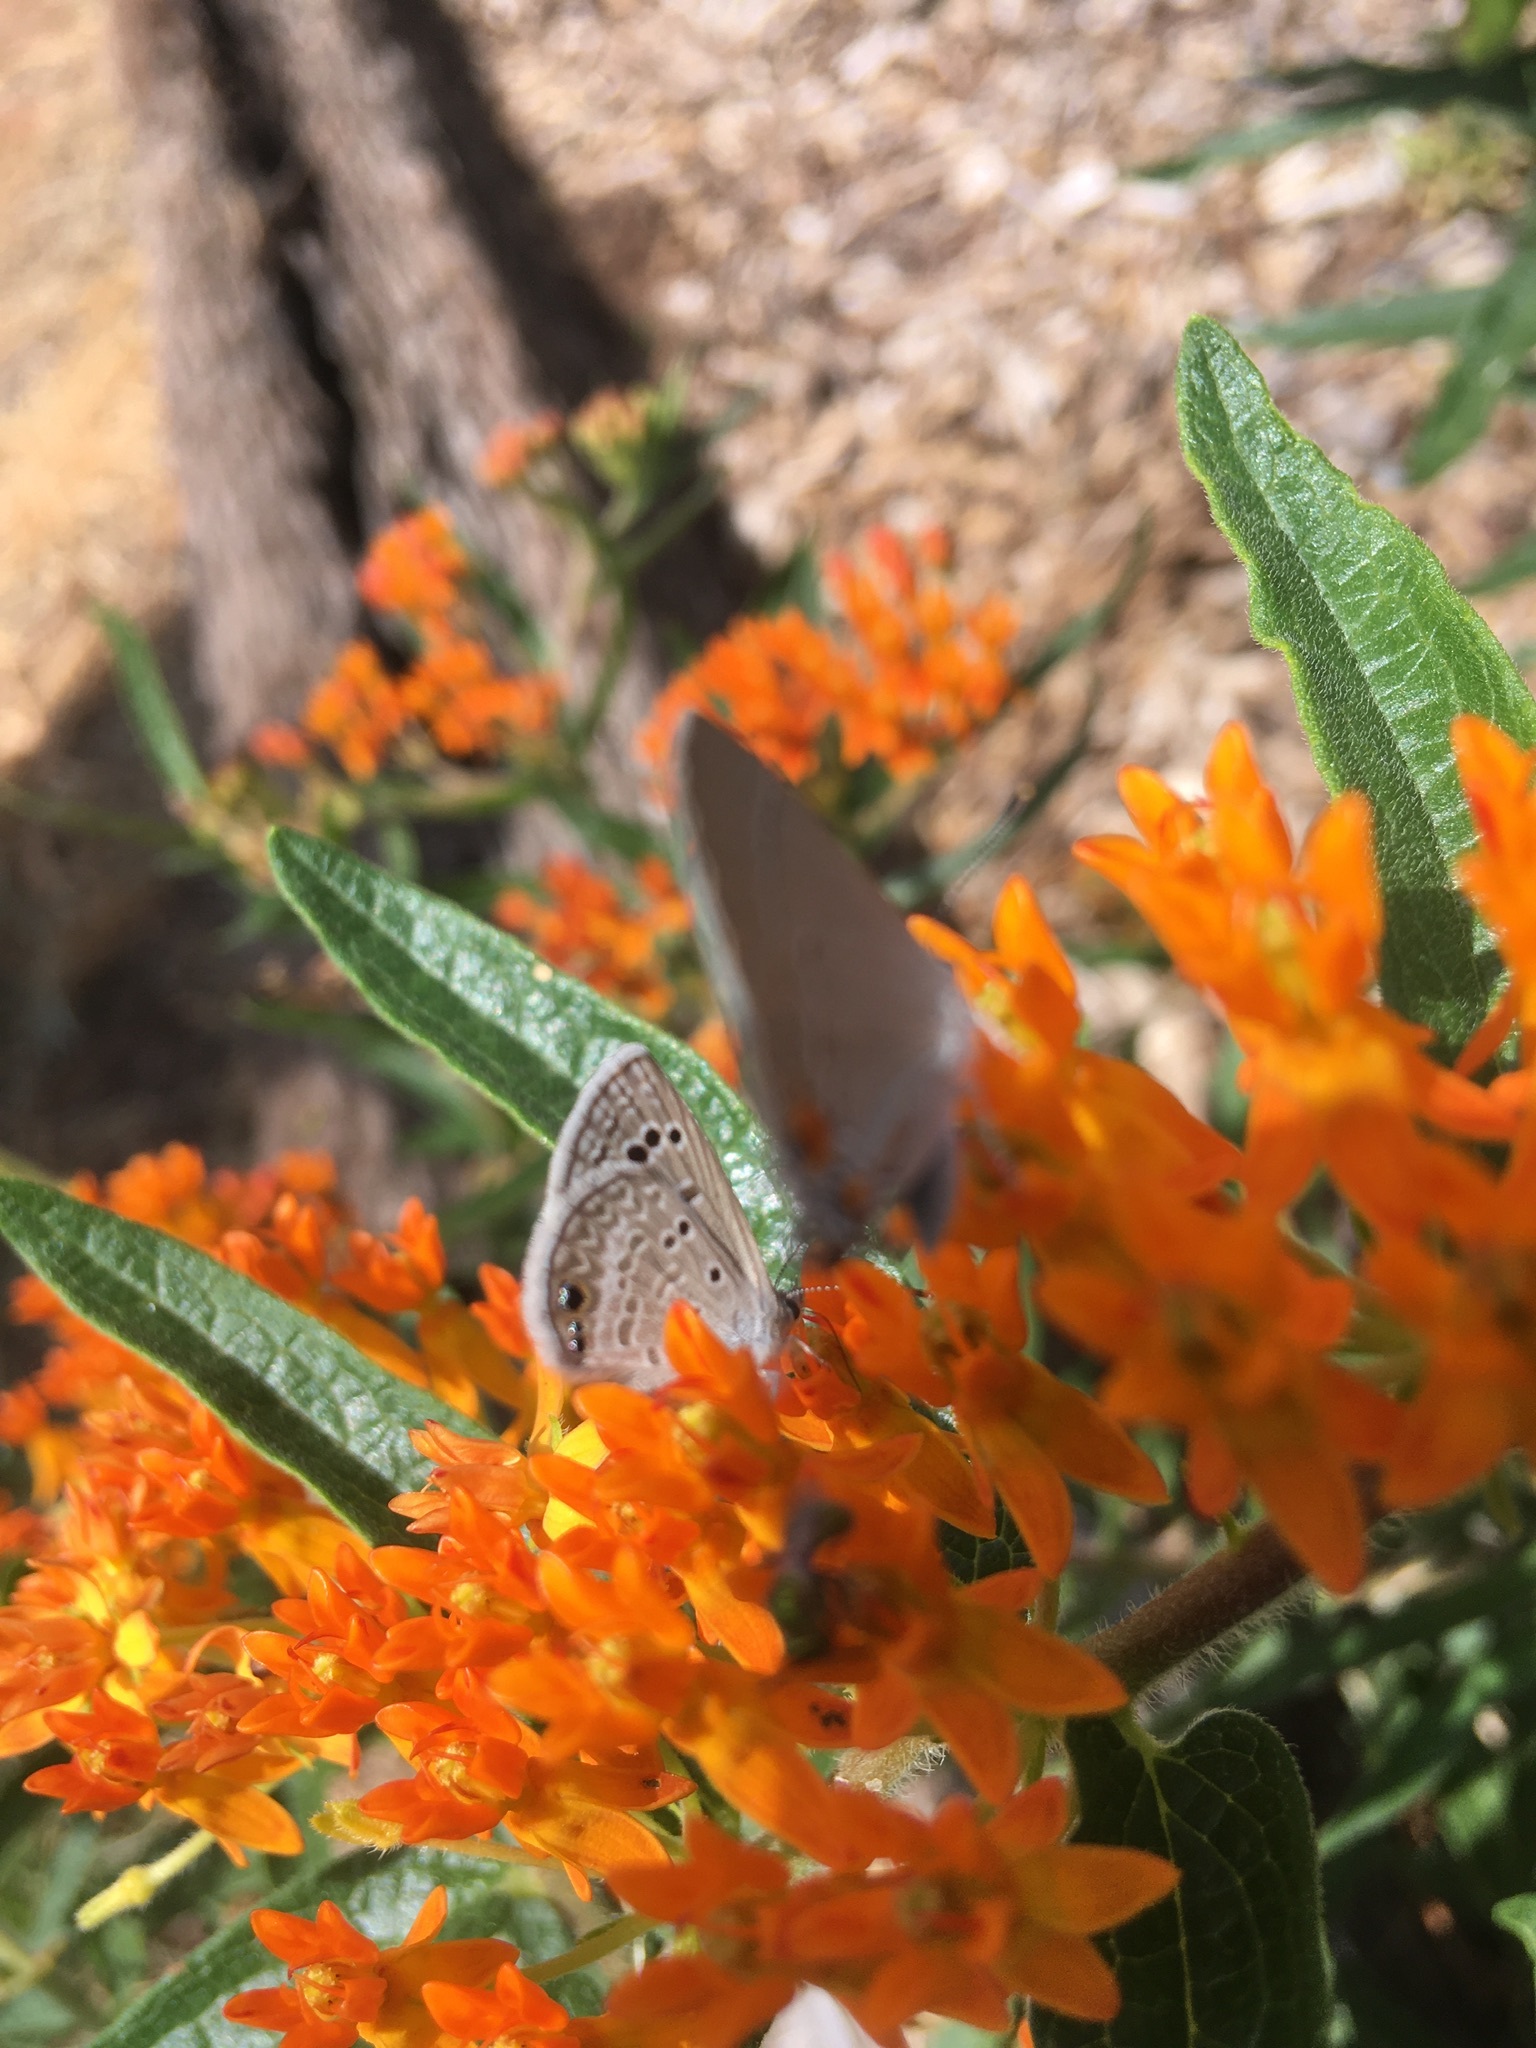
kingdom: Animalia
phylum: Arthropoda
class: Insecta
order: Lepidoptera
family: Lycaenidae
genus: Echinargus
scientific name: Echinargus isola
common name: Reakirt's blue
